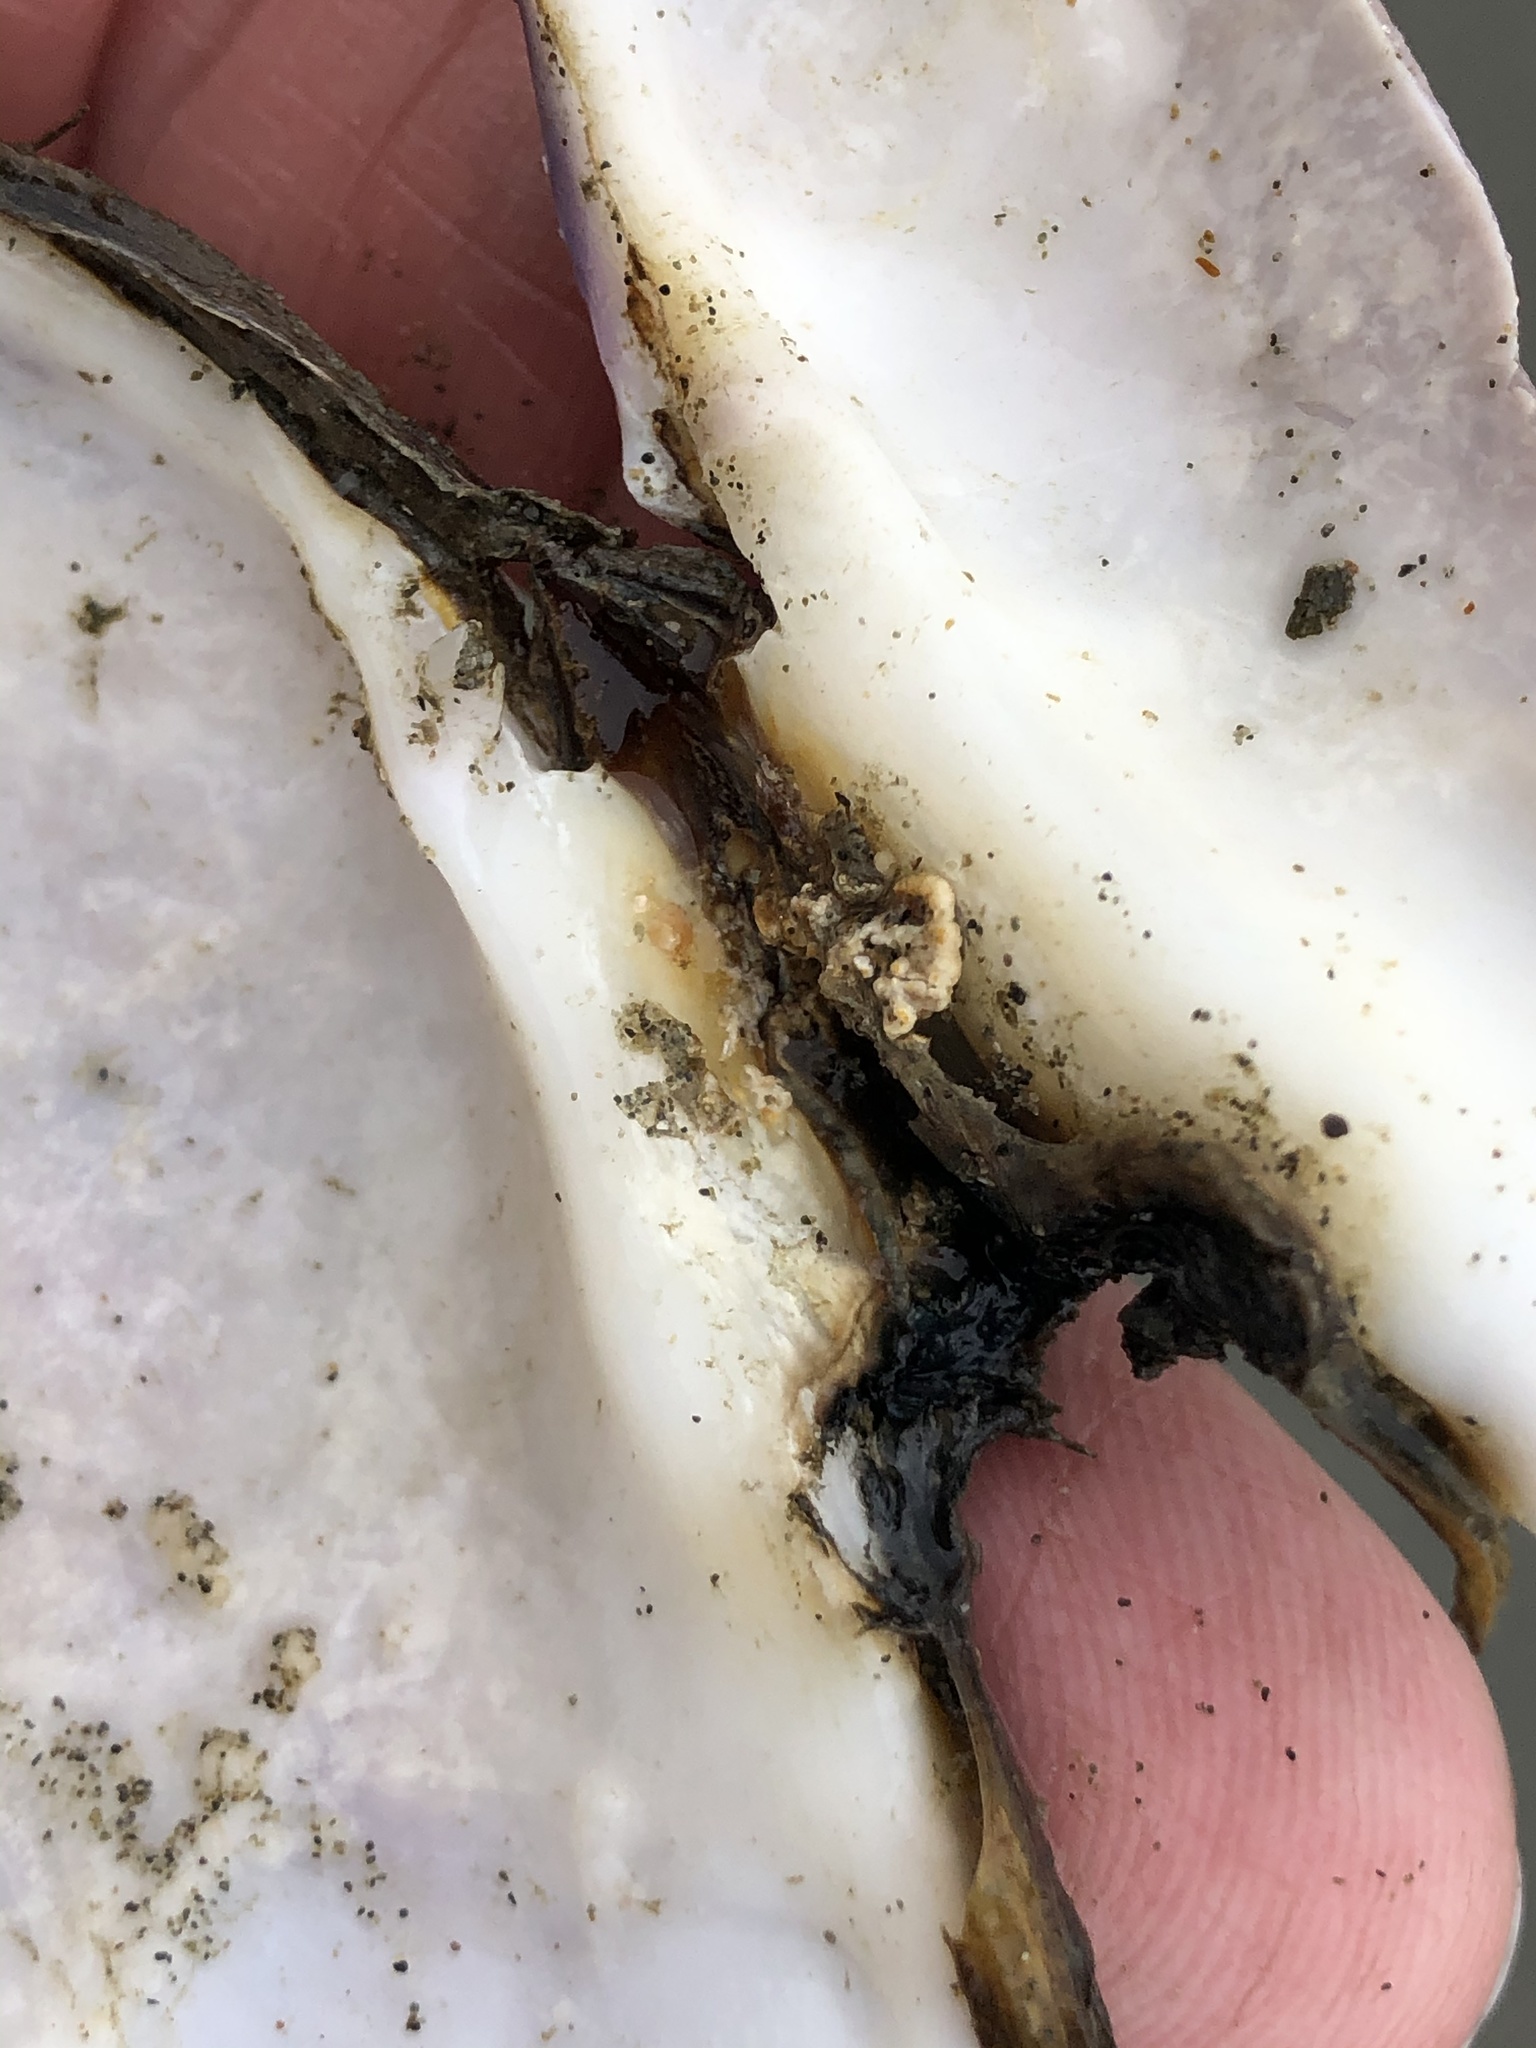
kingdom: Animalia
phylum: Mollusca
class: Bivalvia
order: Cardiida
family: Psammobiidae
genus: Nuttallia
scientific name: Nuttallia nuttallii
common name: California mahogany-clam
